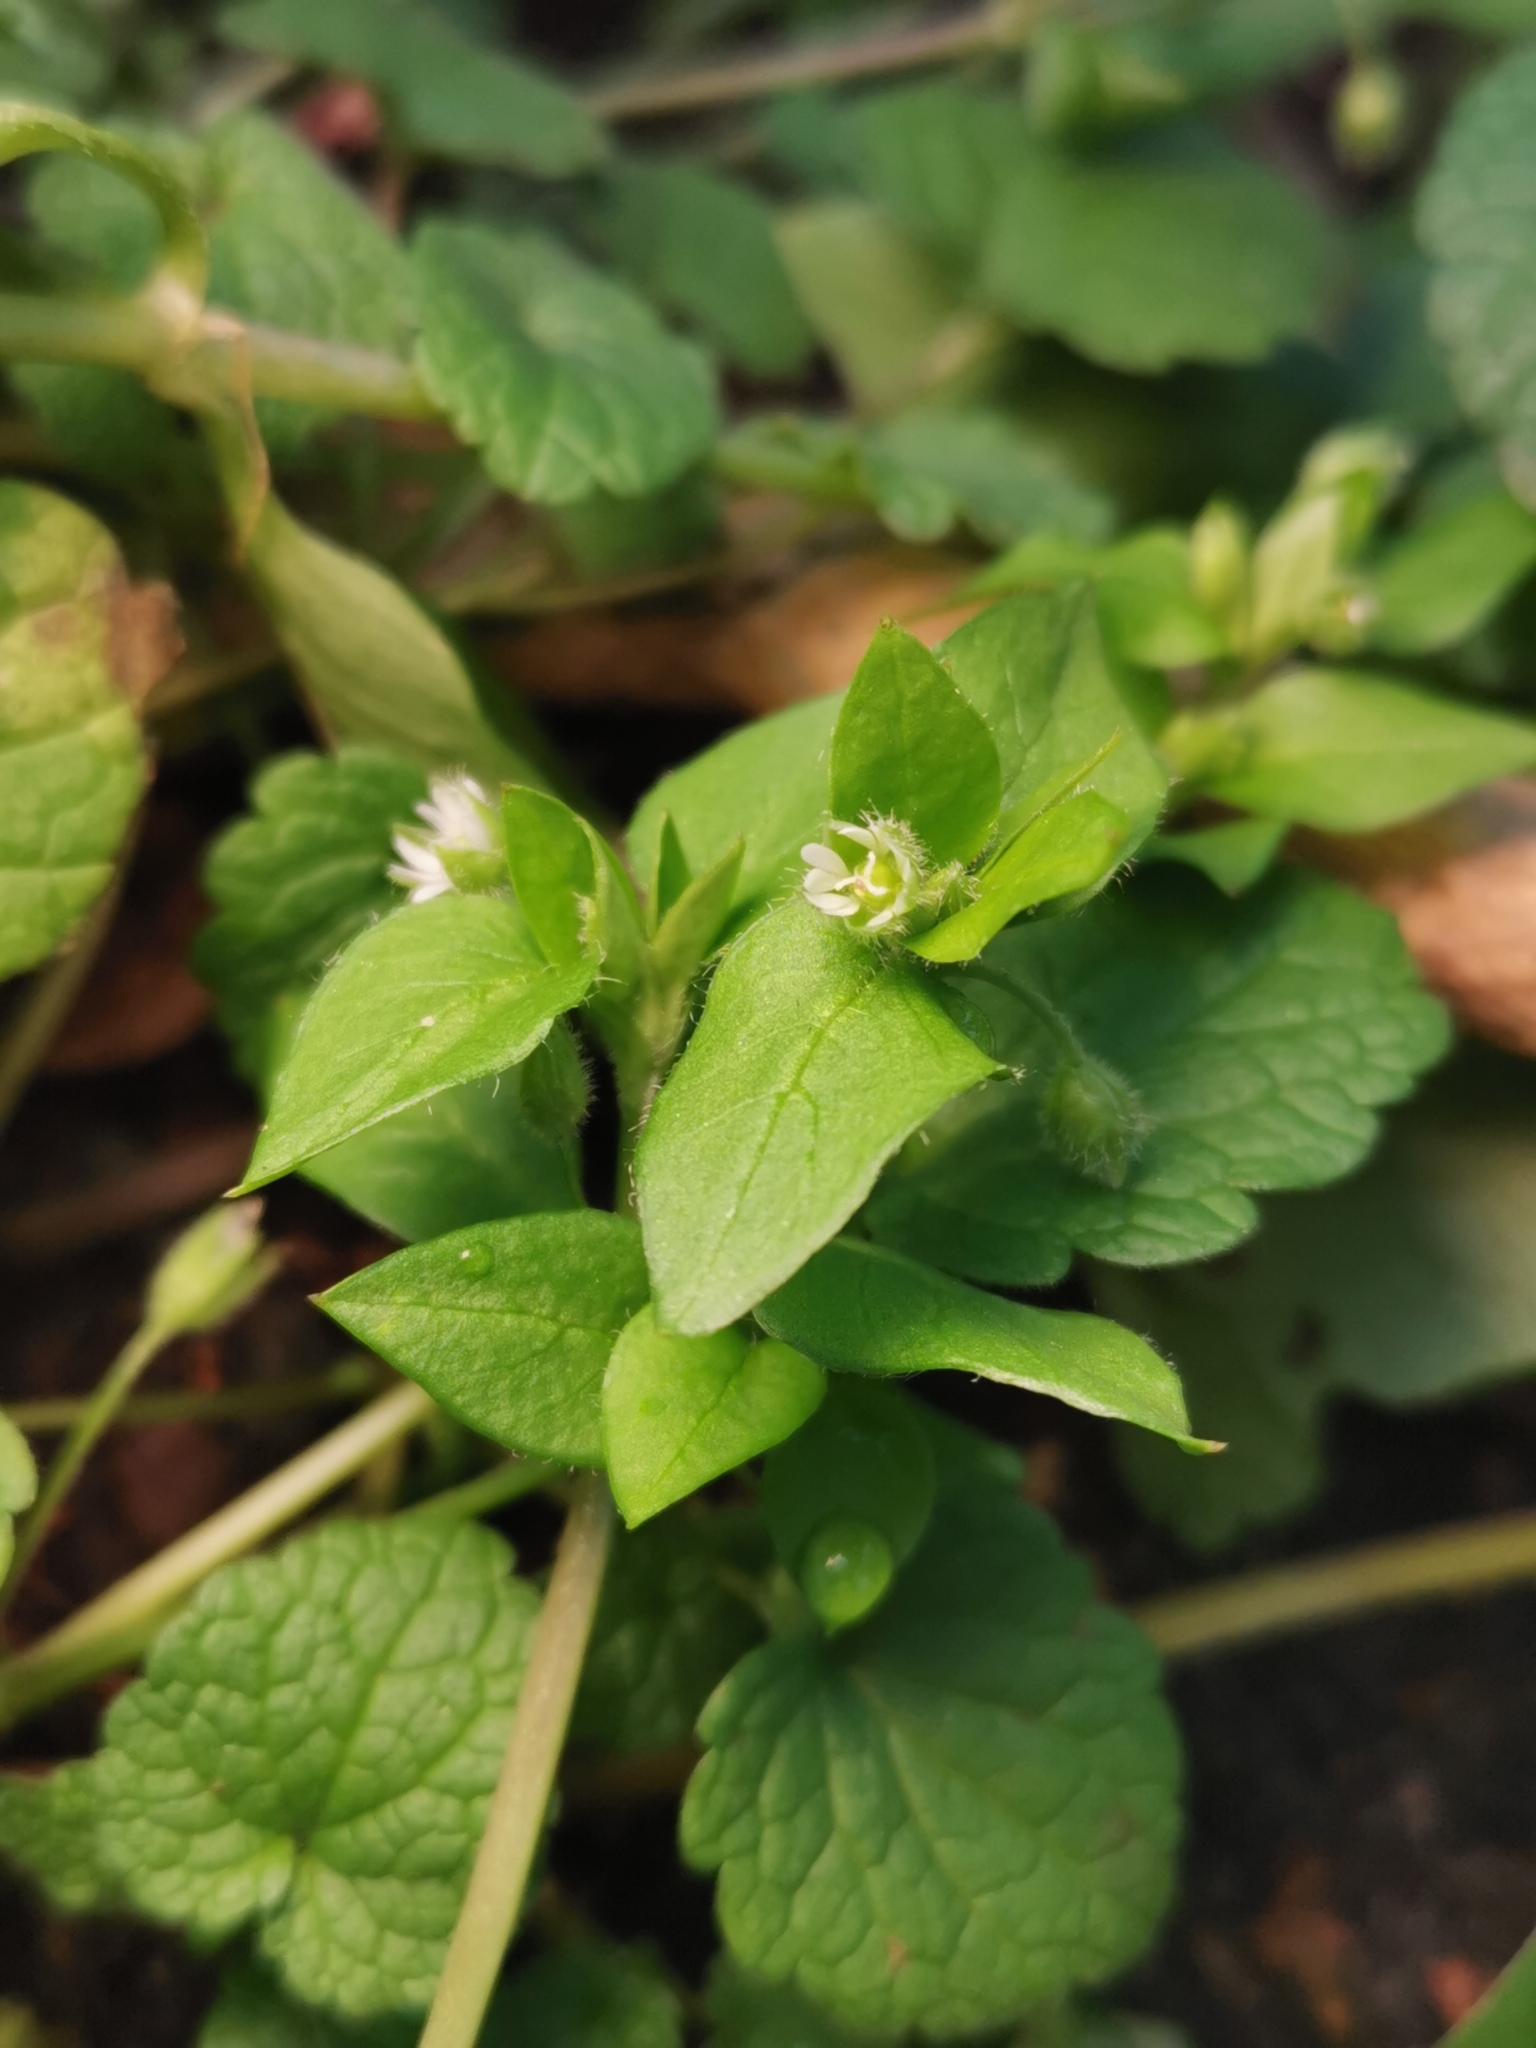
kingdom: Plantae
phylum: Tracheophyta
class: Magnoliopsida
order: Caryophyllales
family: Caryophyllaceae
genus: Stellaria
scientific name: Stellaria media
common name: Common chickweed
